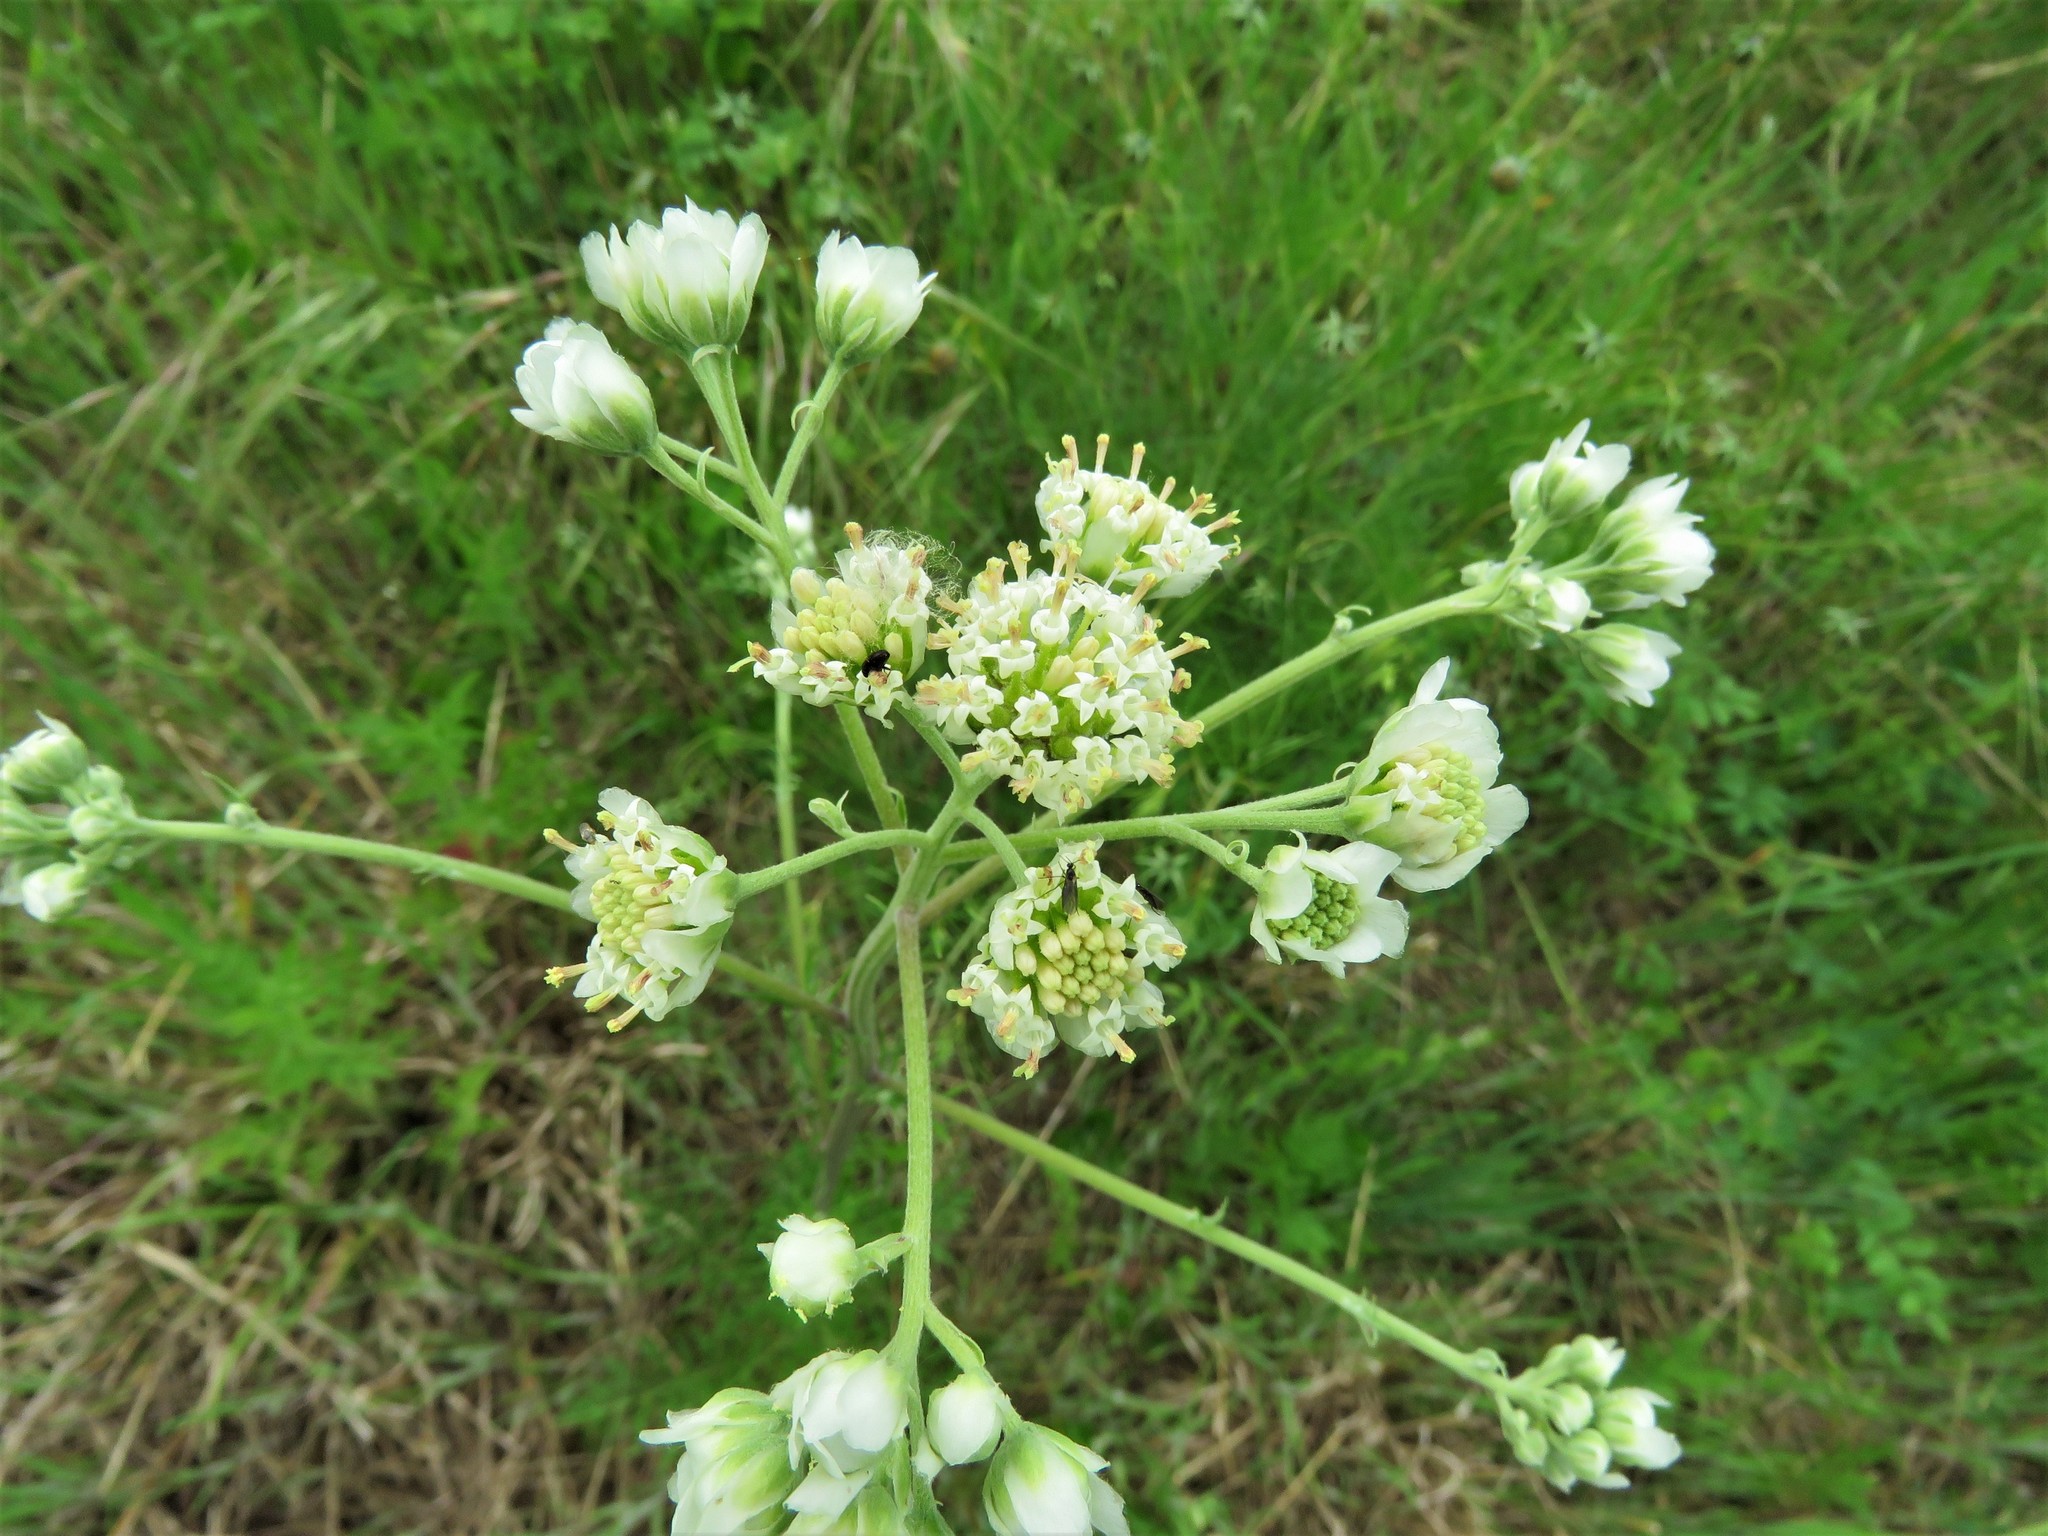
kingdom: Plantae
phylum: Tracheophyta
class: Magnoliopsida
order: Asterales
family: Asteraceae
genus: Hymenopappus
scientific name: Hymenopappus scabiosaeus
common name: Carolina woollywhite
